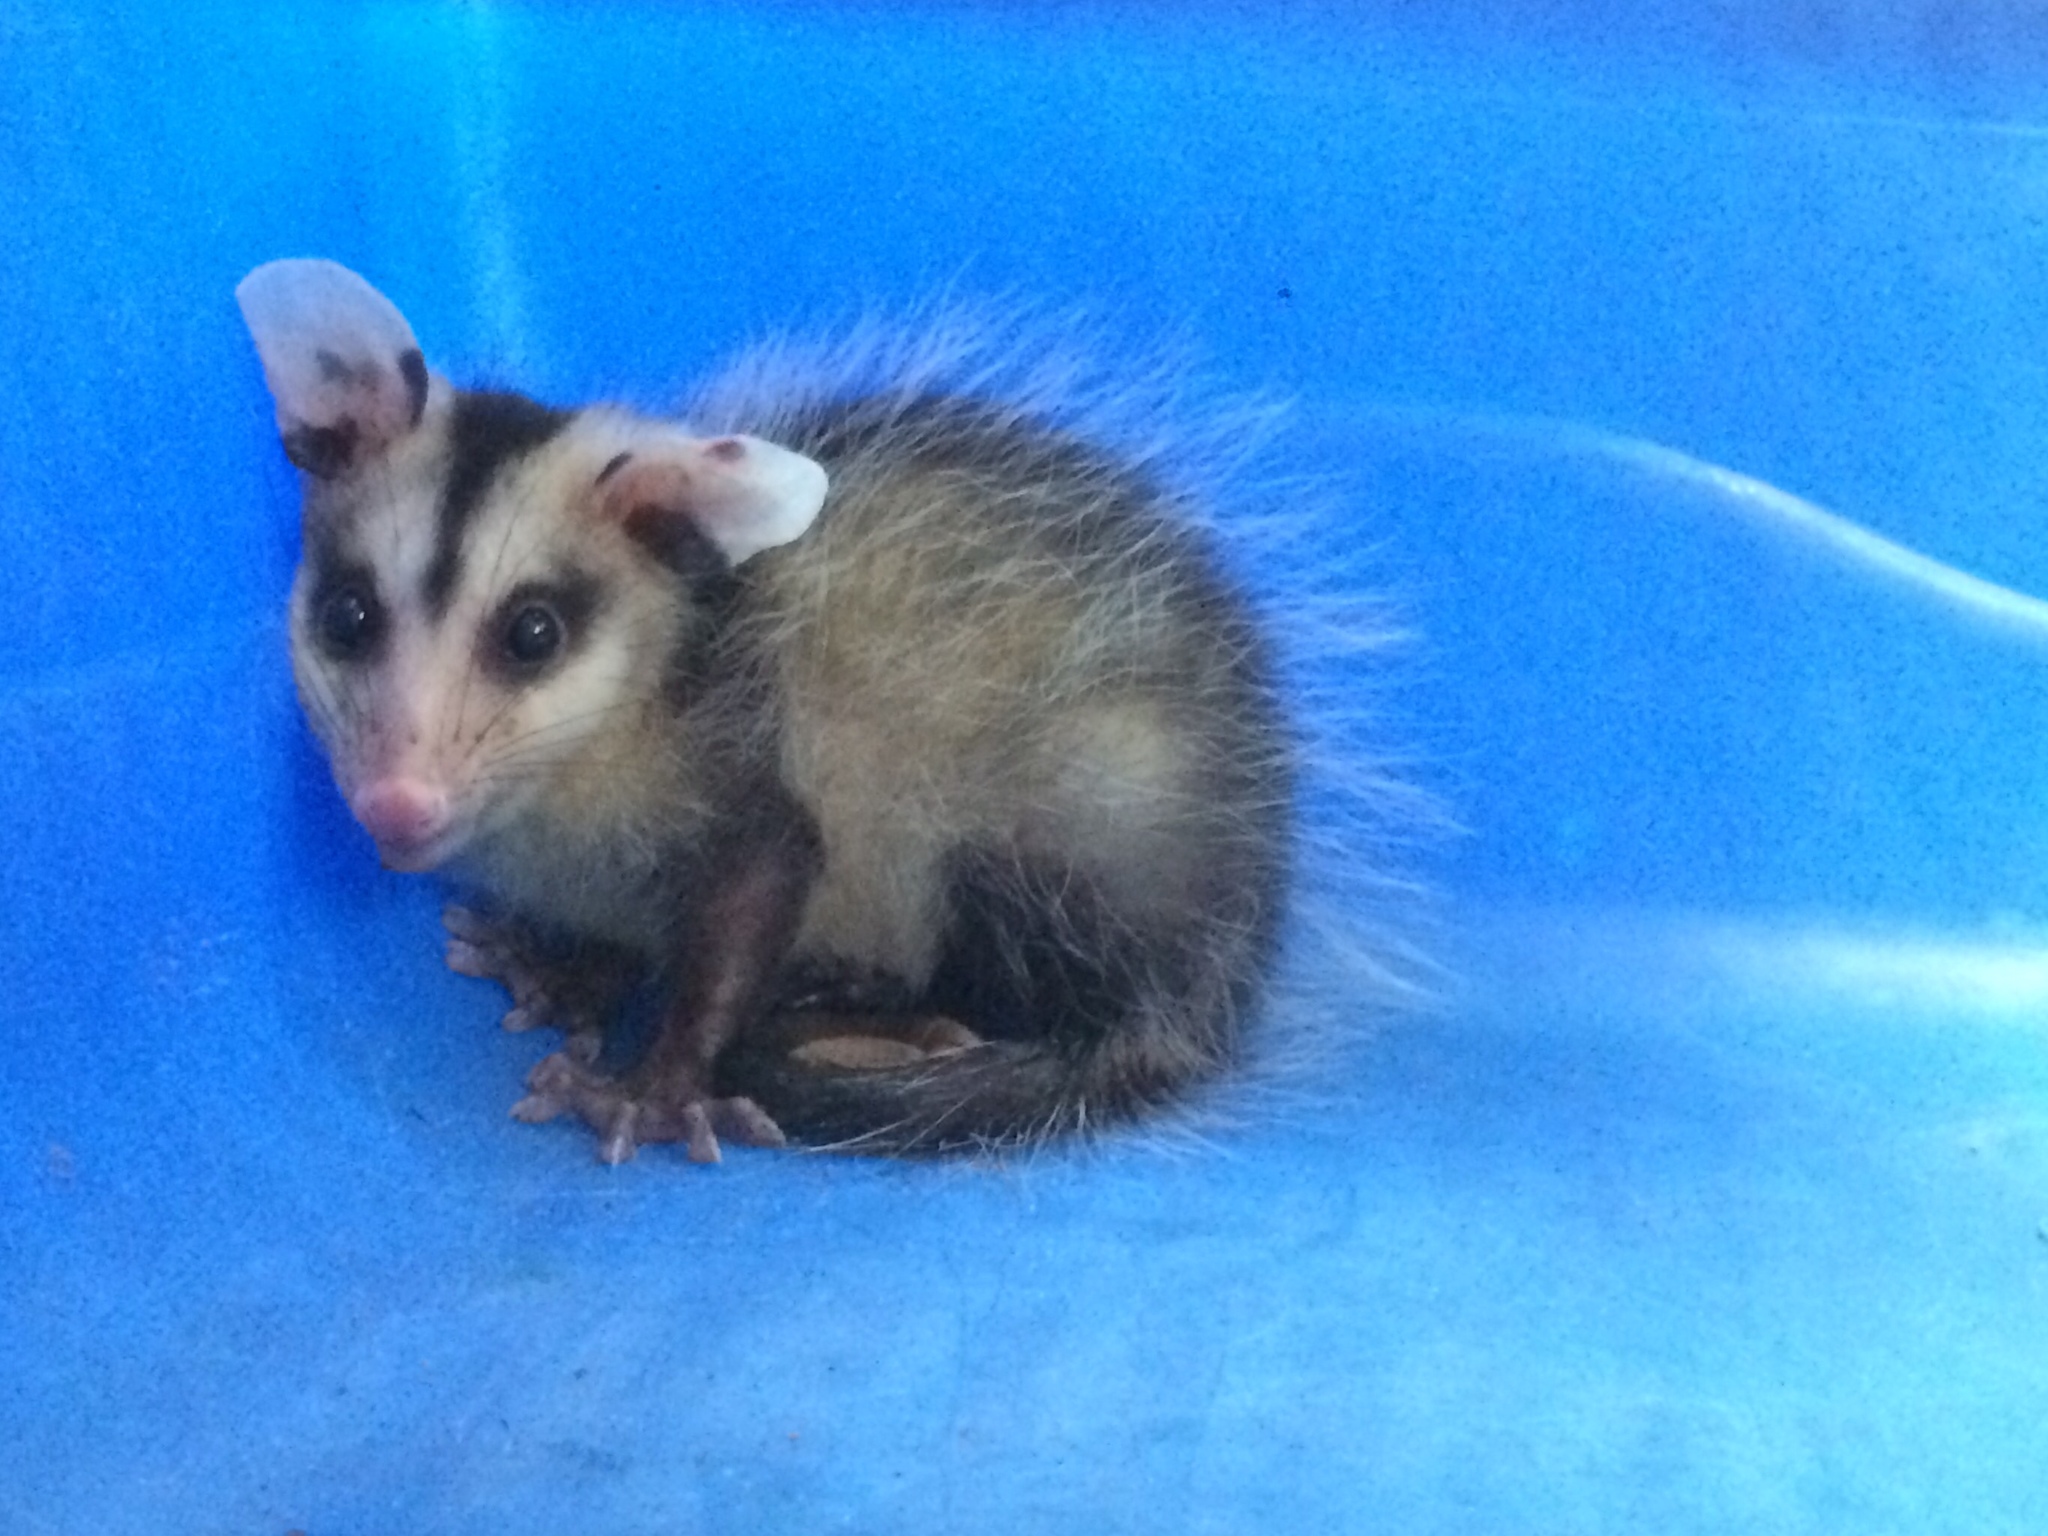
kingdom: Animalia
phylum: Chordata
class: Mammalia
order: Didelphimorphia
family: Didelphidae
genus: Didelphis
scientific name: Didelphis albiventris
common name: White-eared opossum
